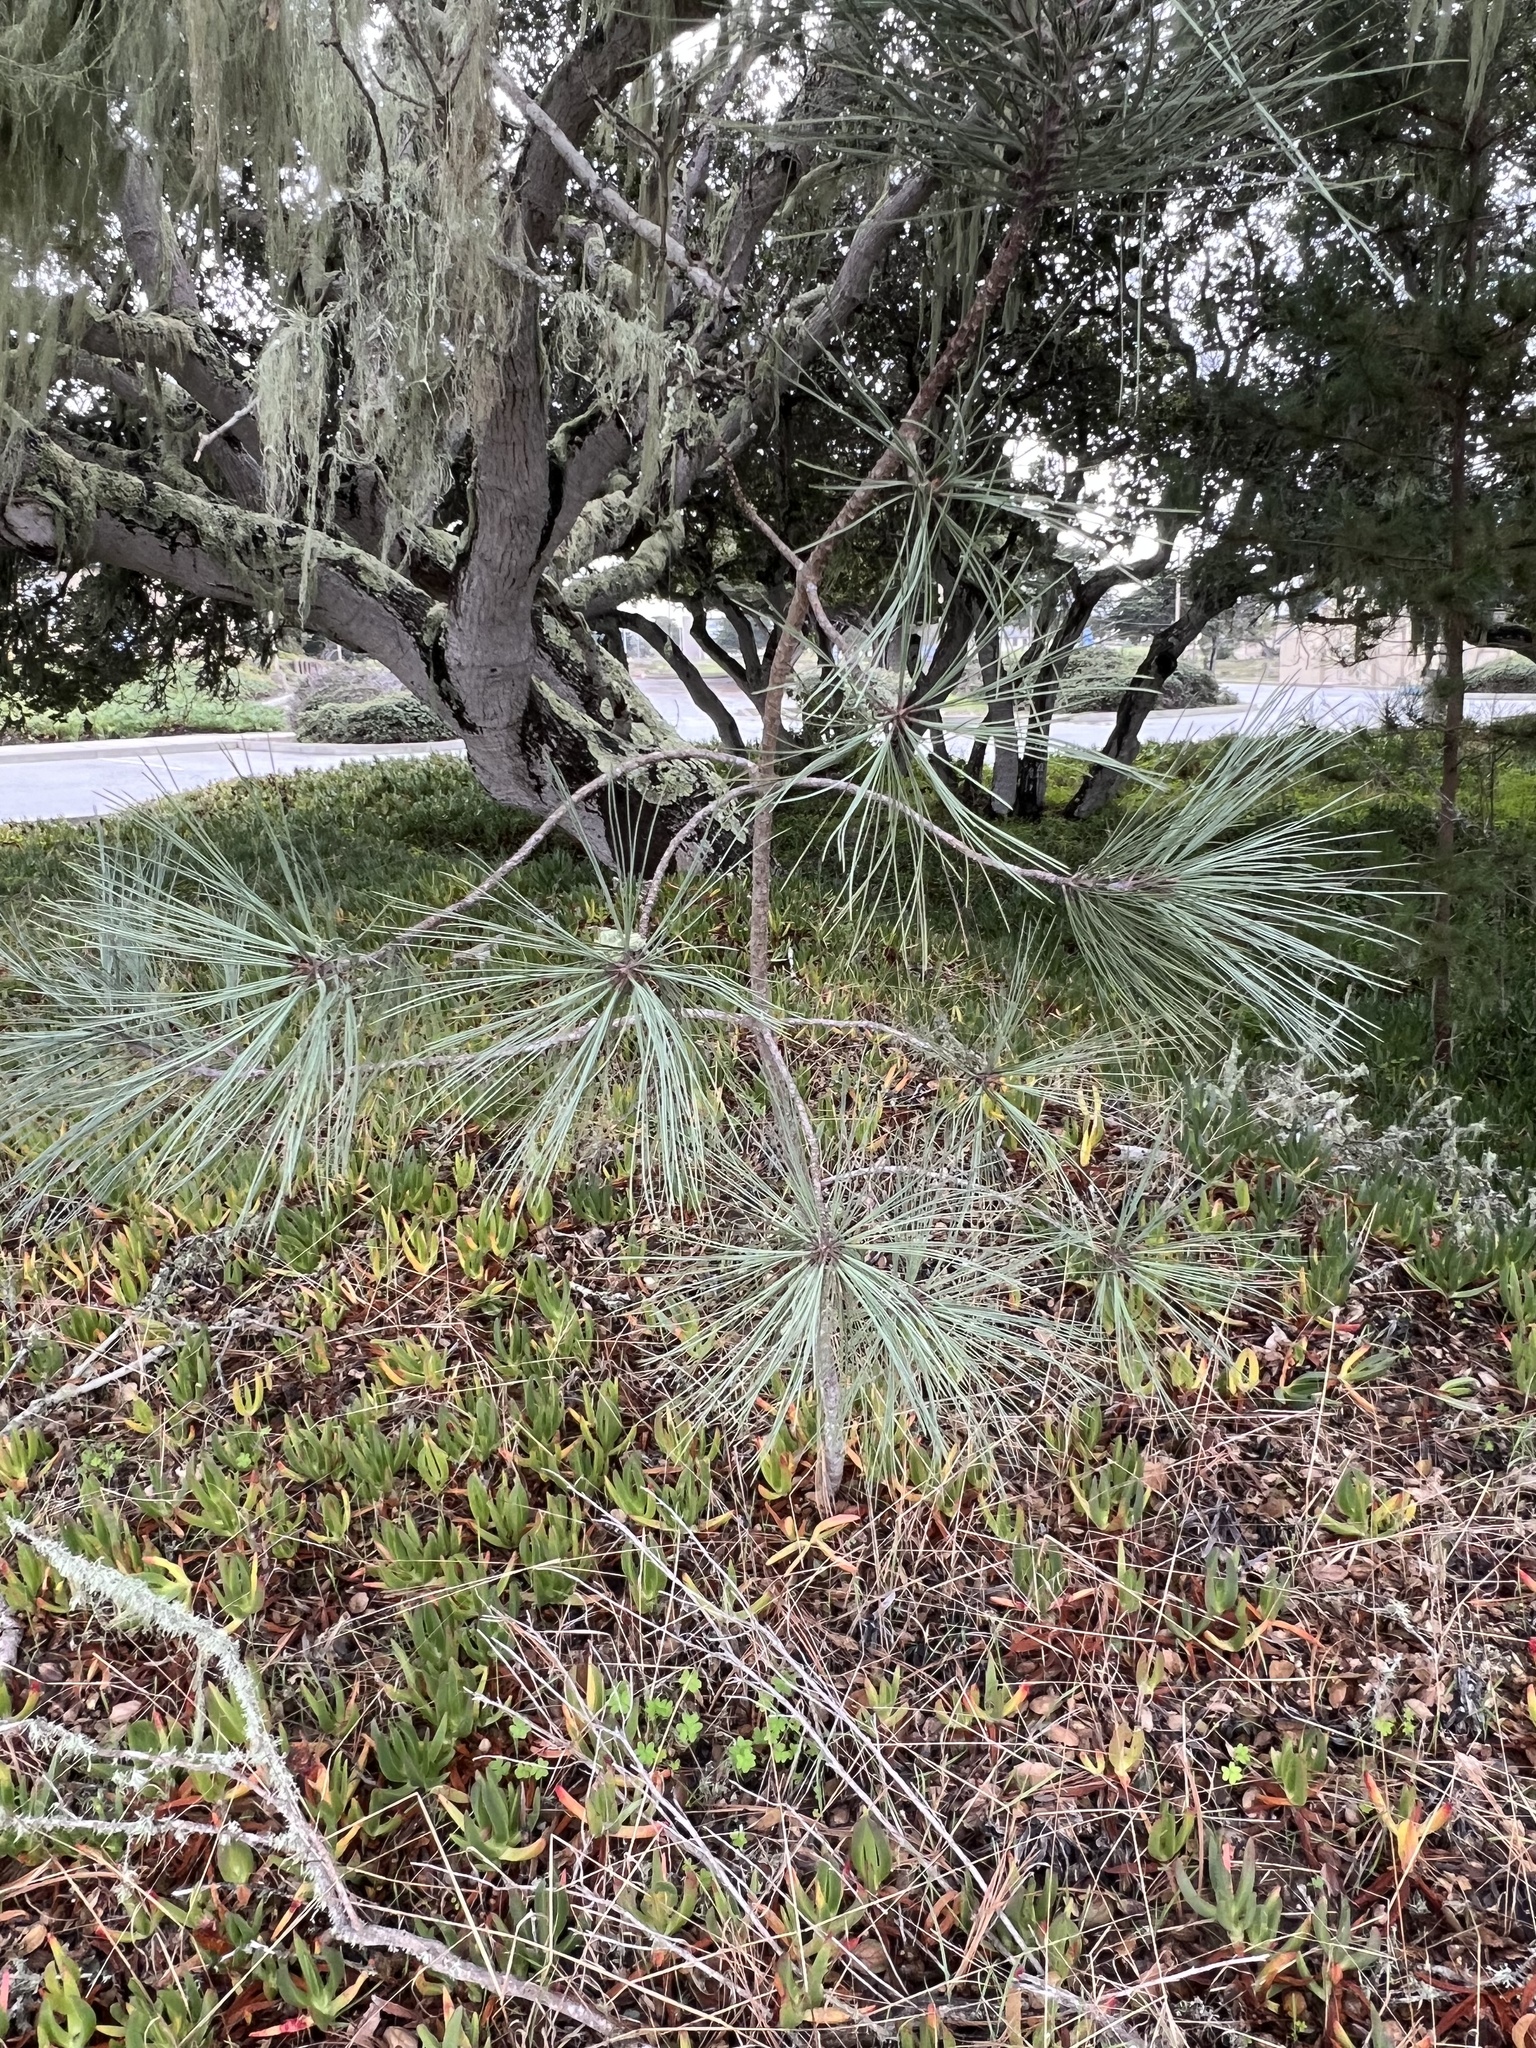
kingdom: Plantae
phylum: Tracheophyta
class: Pinopsida
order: Pinales
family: Pinaceae
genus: Pinus
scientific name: Pinus torreyana
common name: Torrey pine
